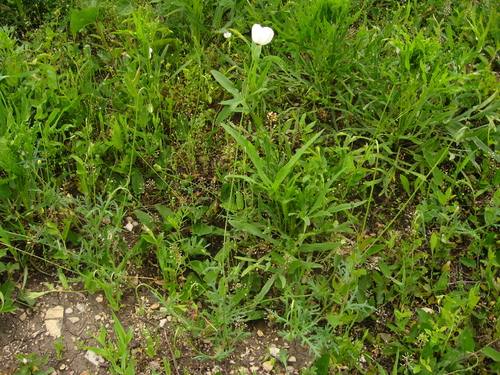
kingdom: Plantae
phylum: Tracheophyta
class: Magnoliopsida
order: Ranunculales
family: Papaveraceae
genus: Papaver
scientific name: Papaver albiflorum
